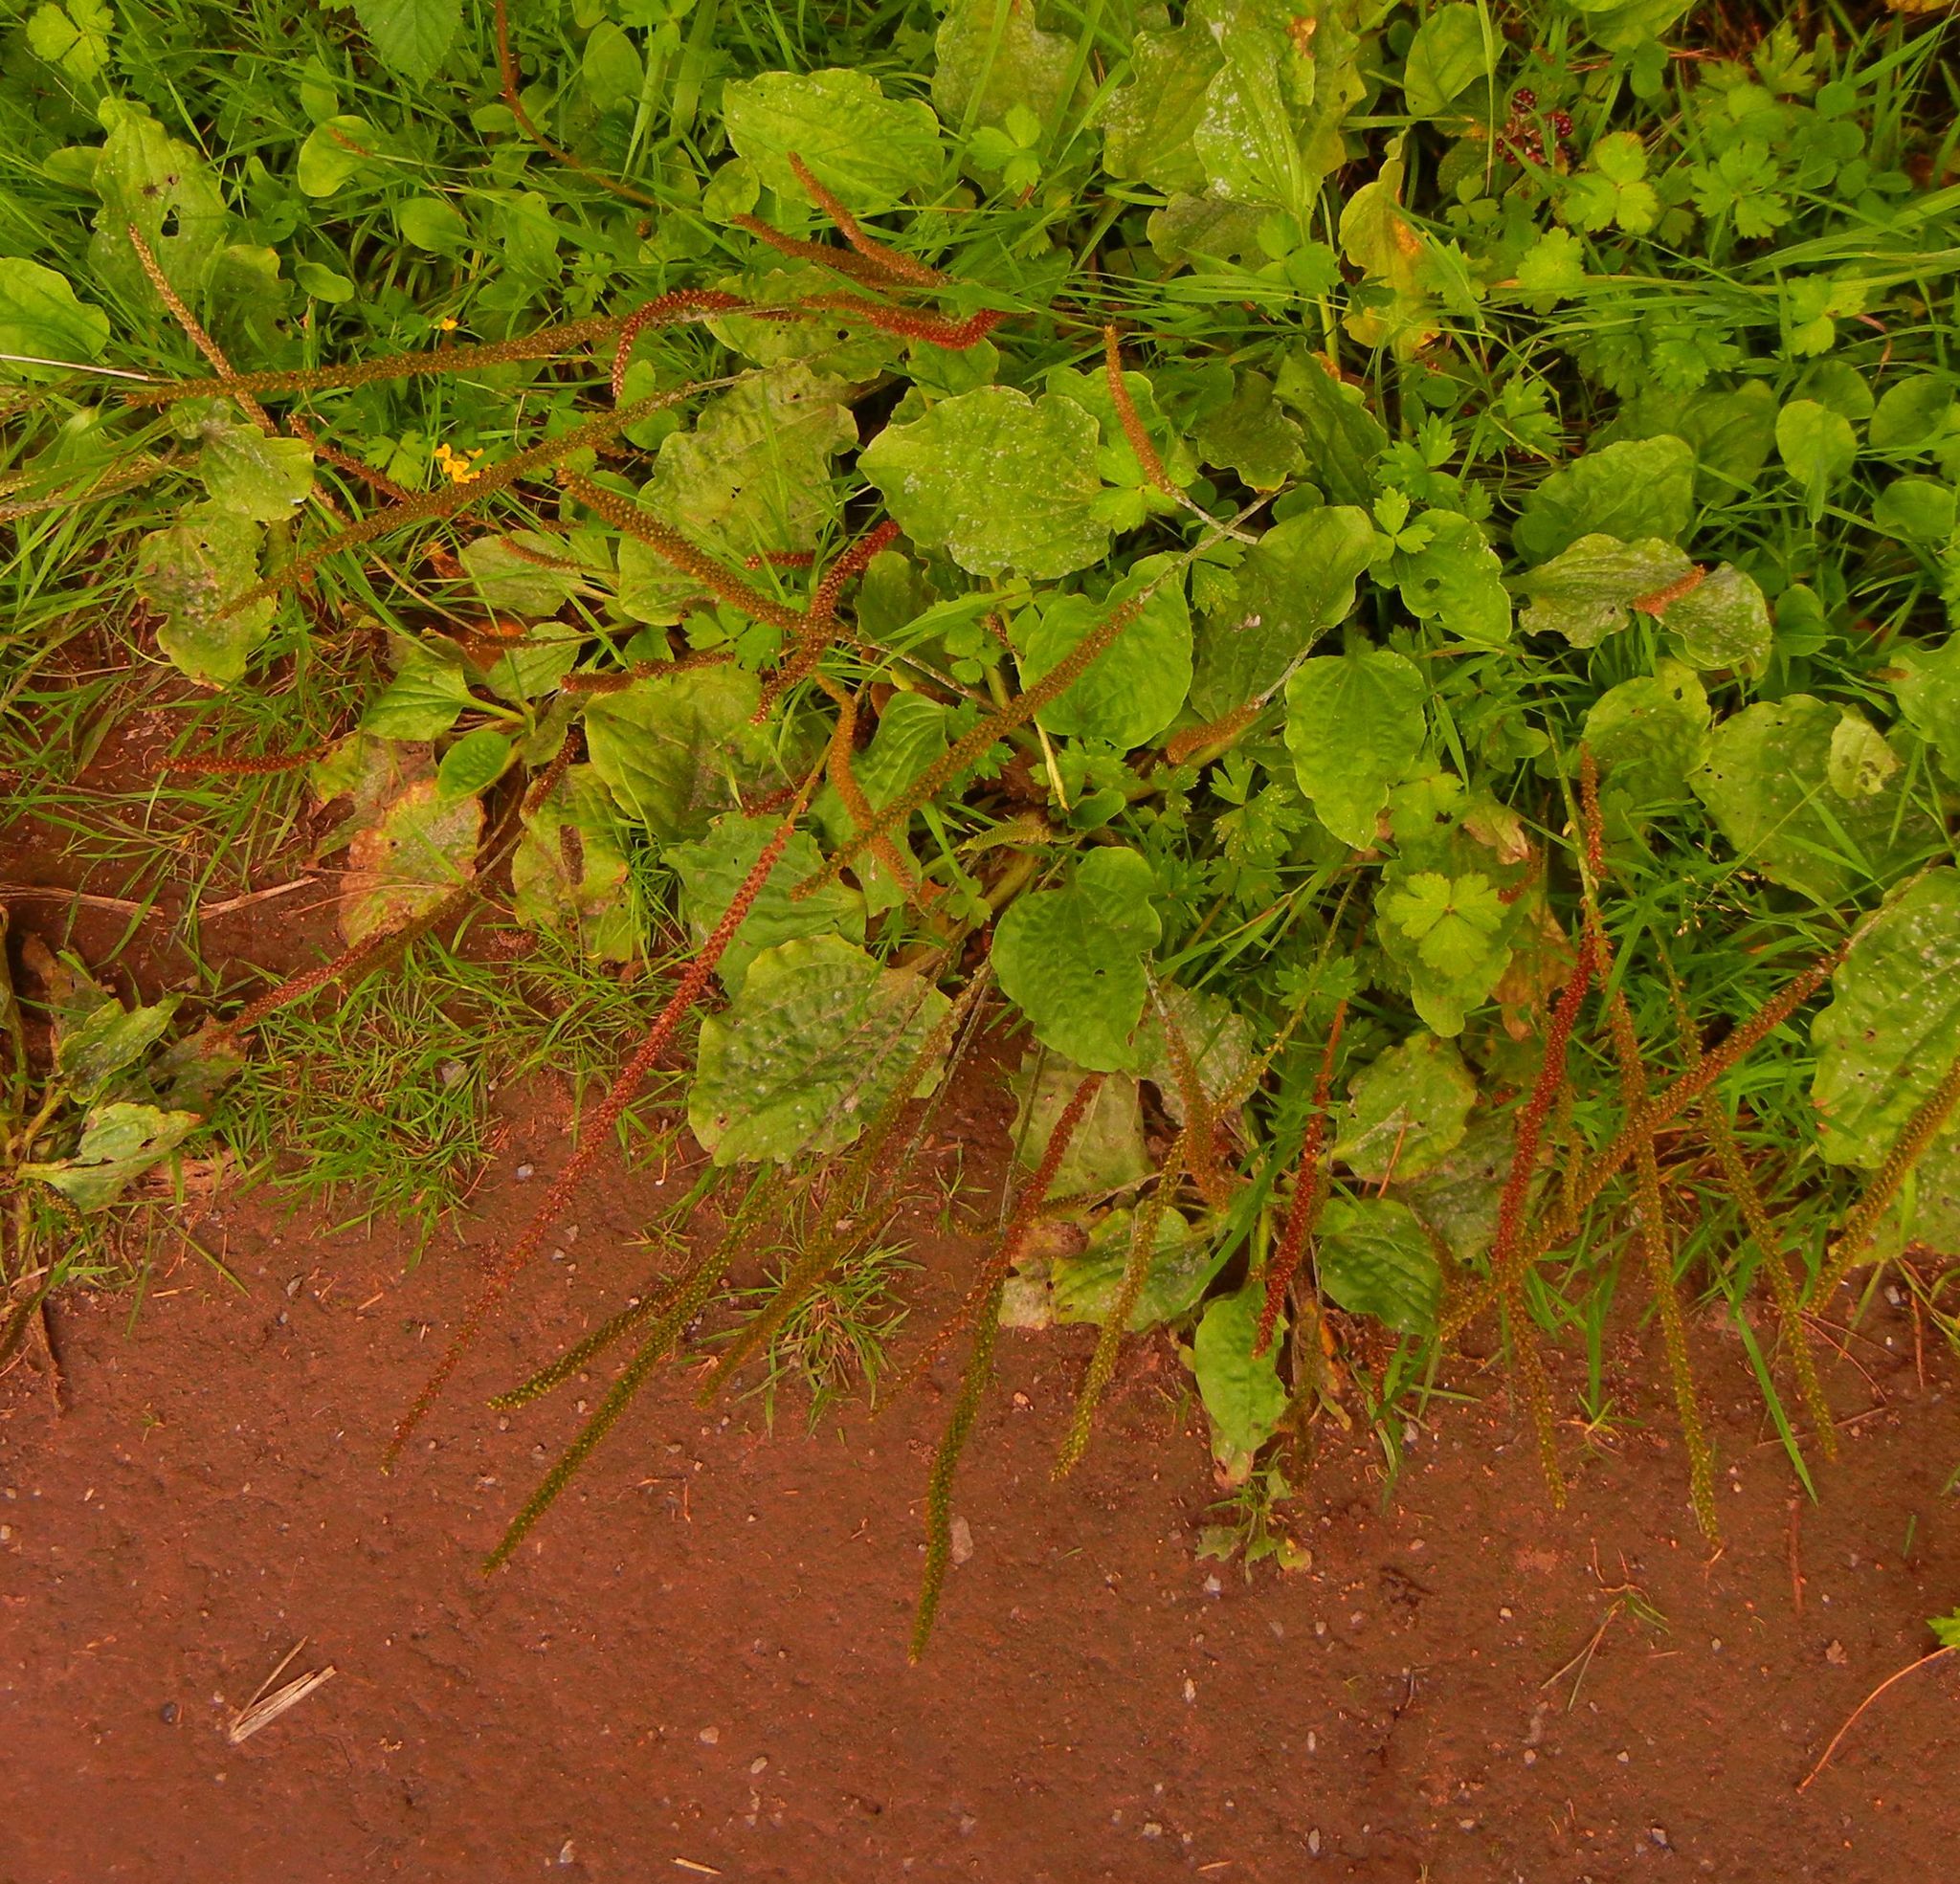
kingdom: Plantae
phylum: Tracheophyta
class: Magnoliopsida
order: Lamiales
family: Plantaginaceae
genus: Plantago
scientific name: Plantago major
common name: Common plantain
